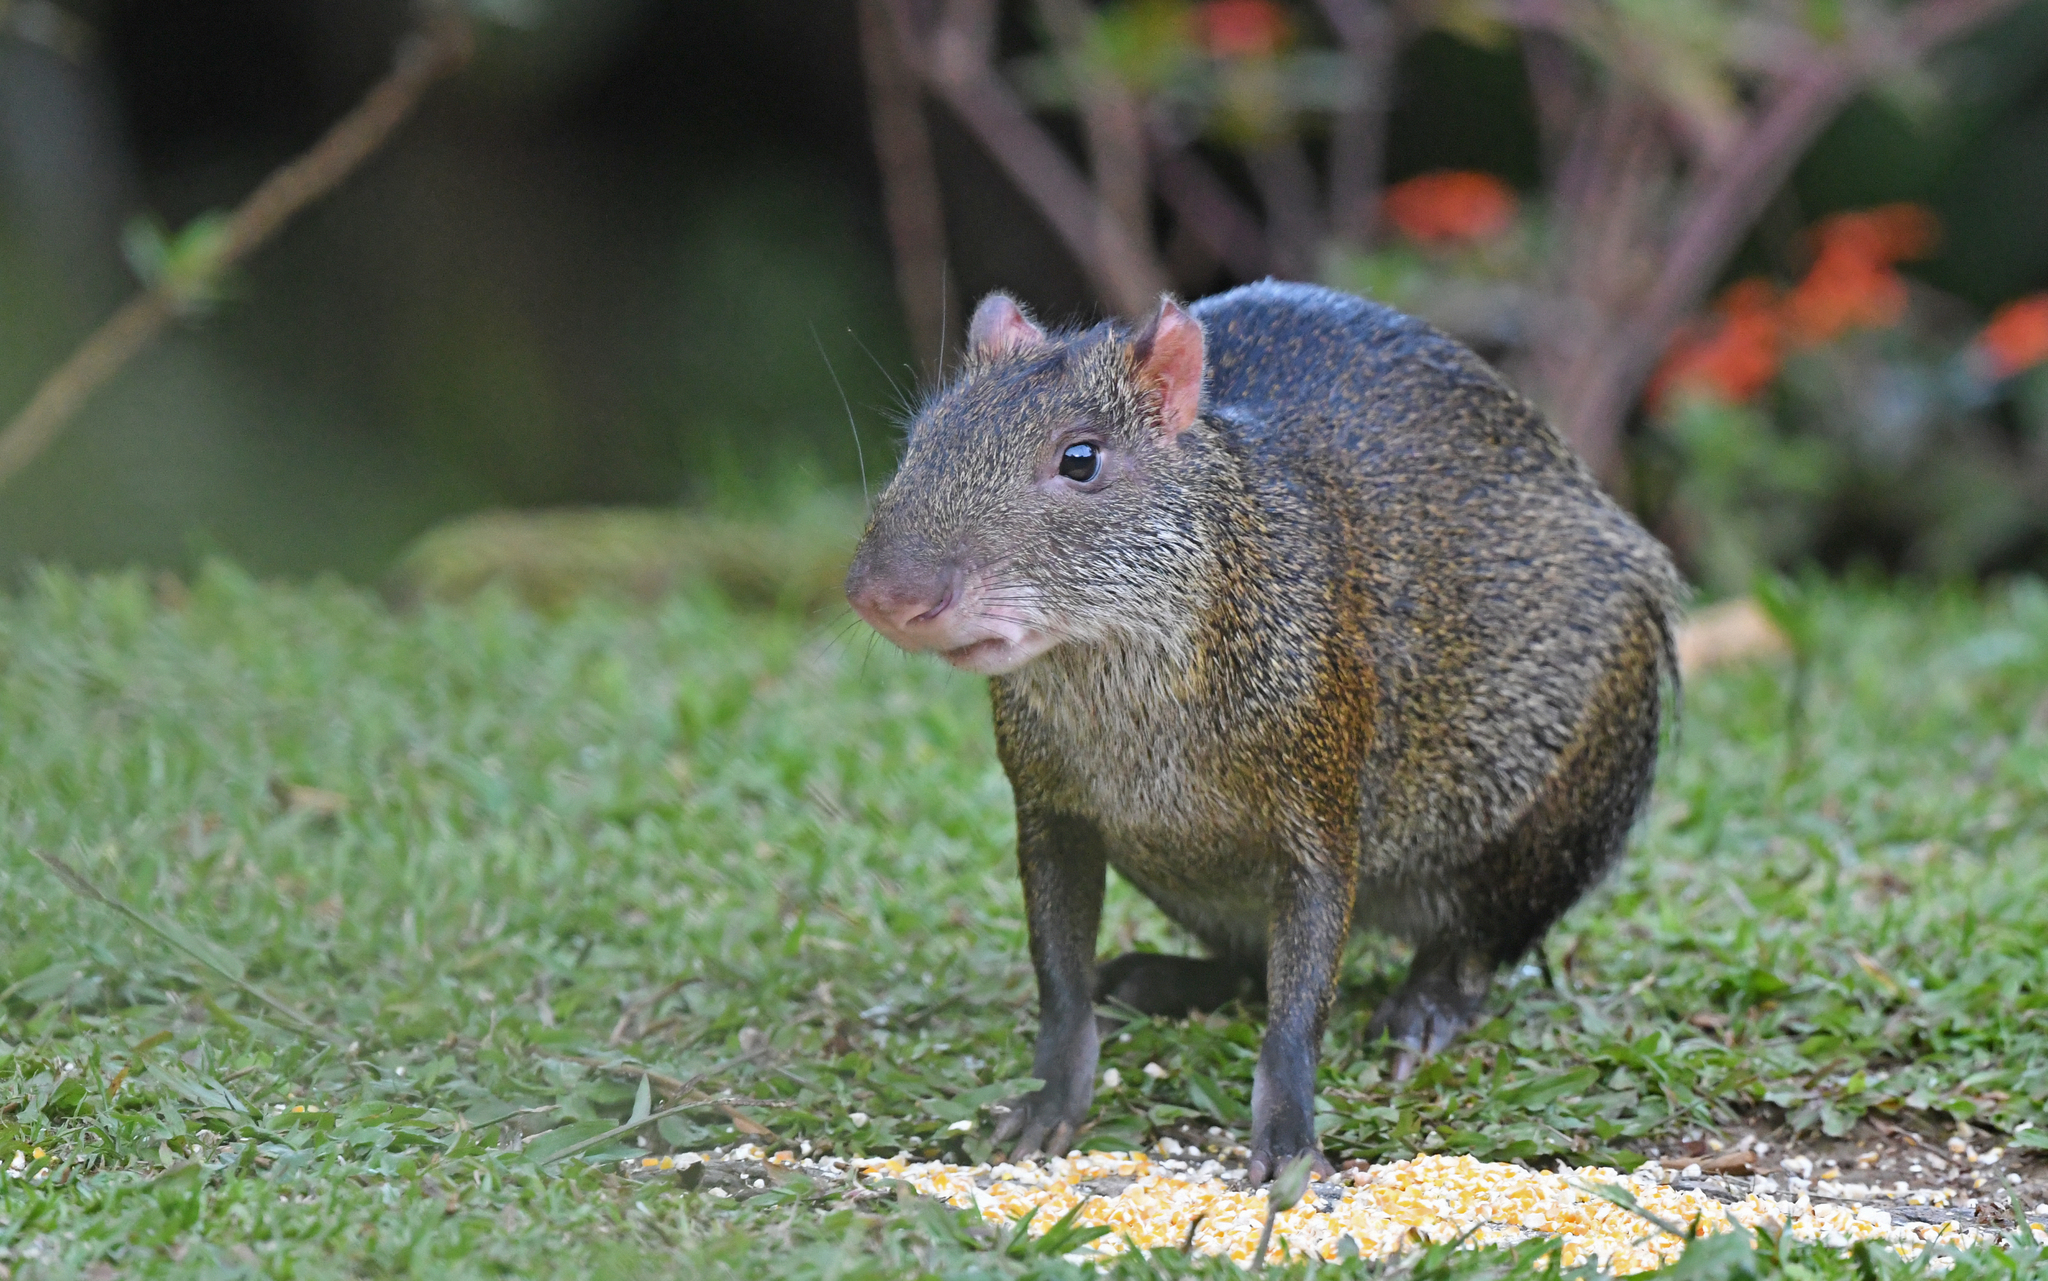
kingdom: Animalia
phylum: Chordata
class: Mammalia
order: Rodentia
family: Dasyproctidae
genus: Dasyprocta
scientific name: Dasyprocta punctata
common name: Central american agouti
